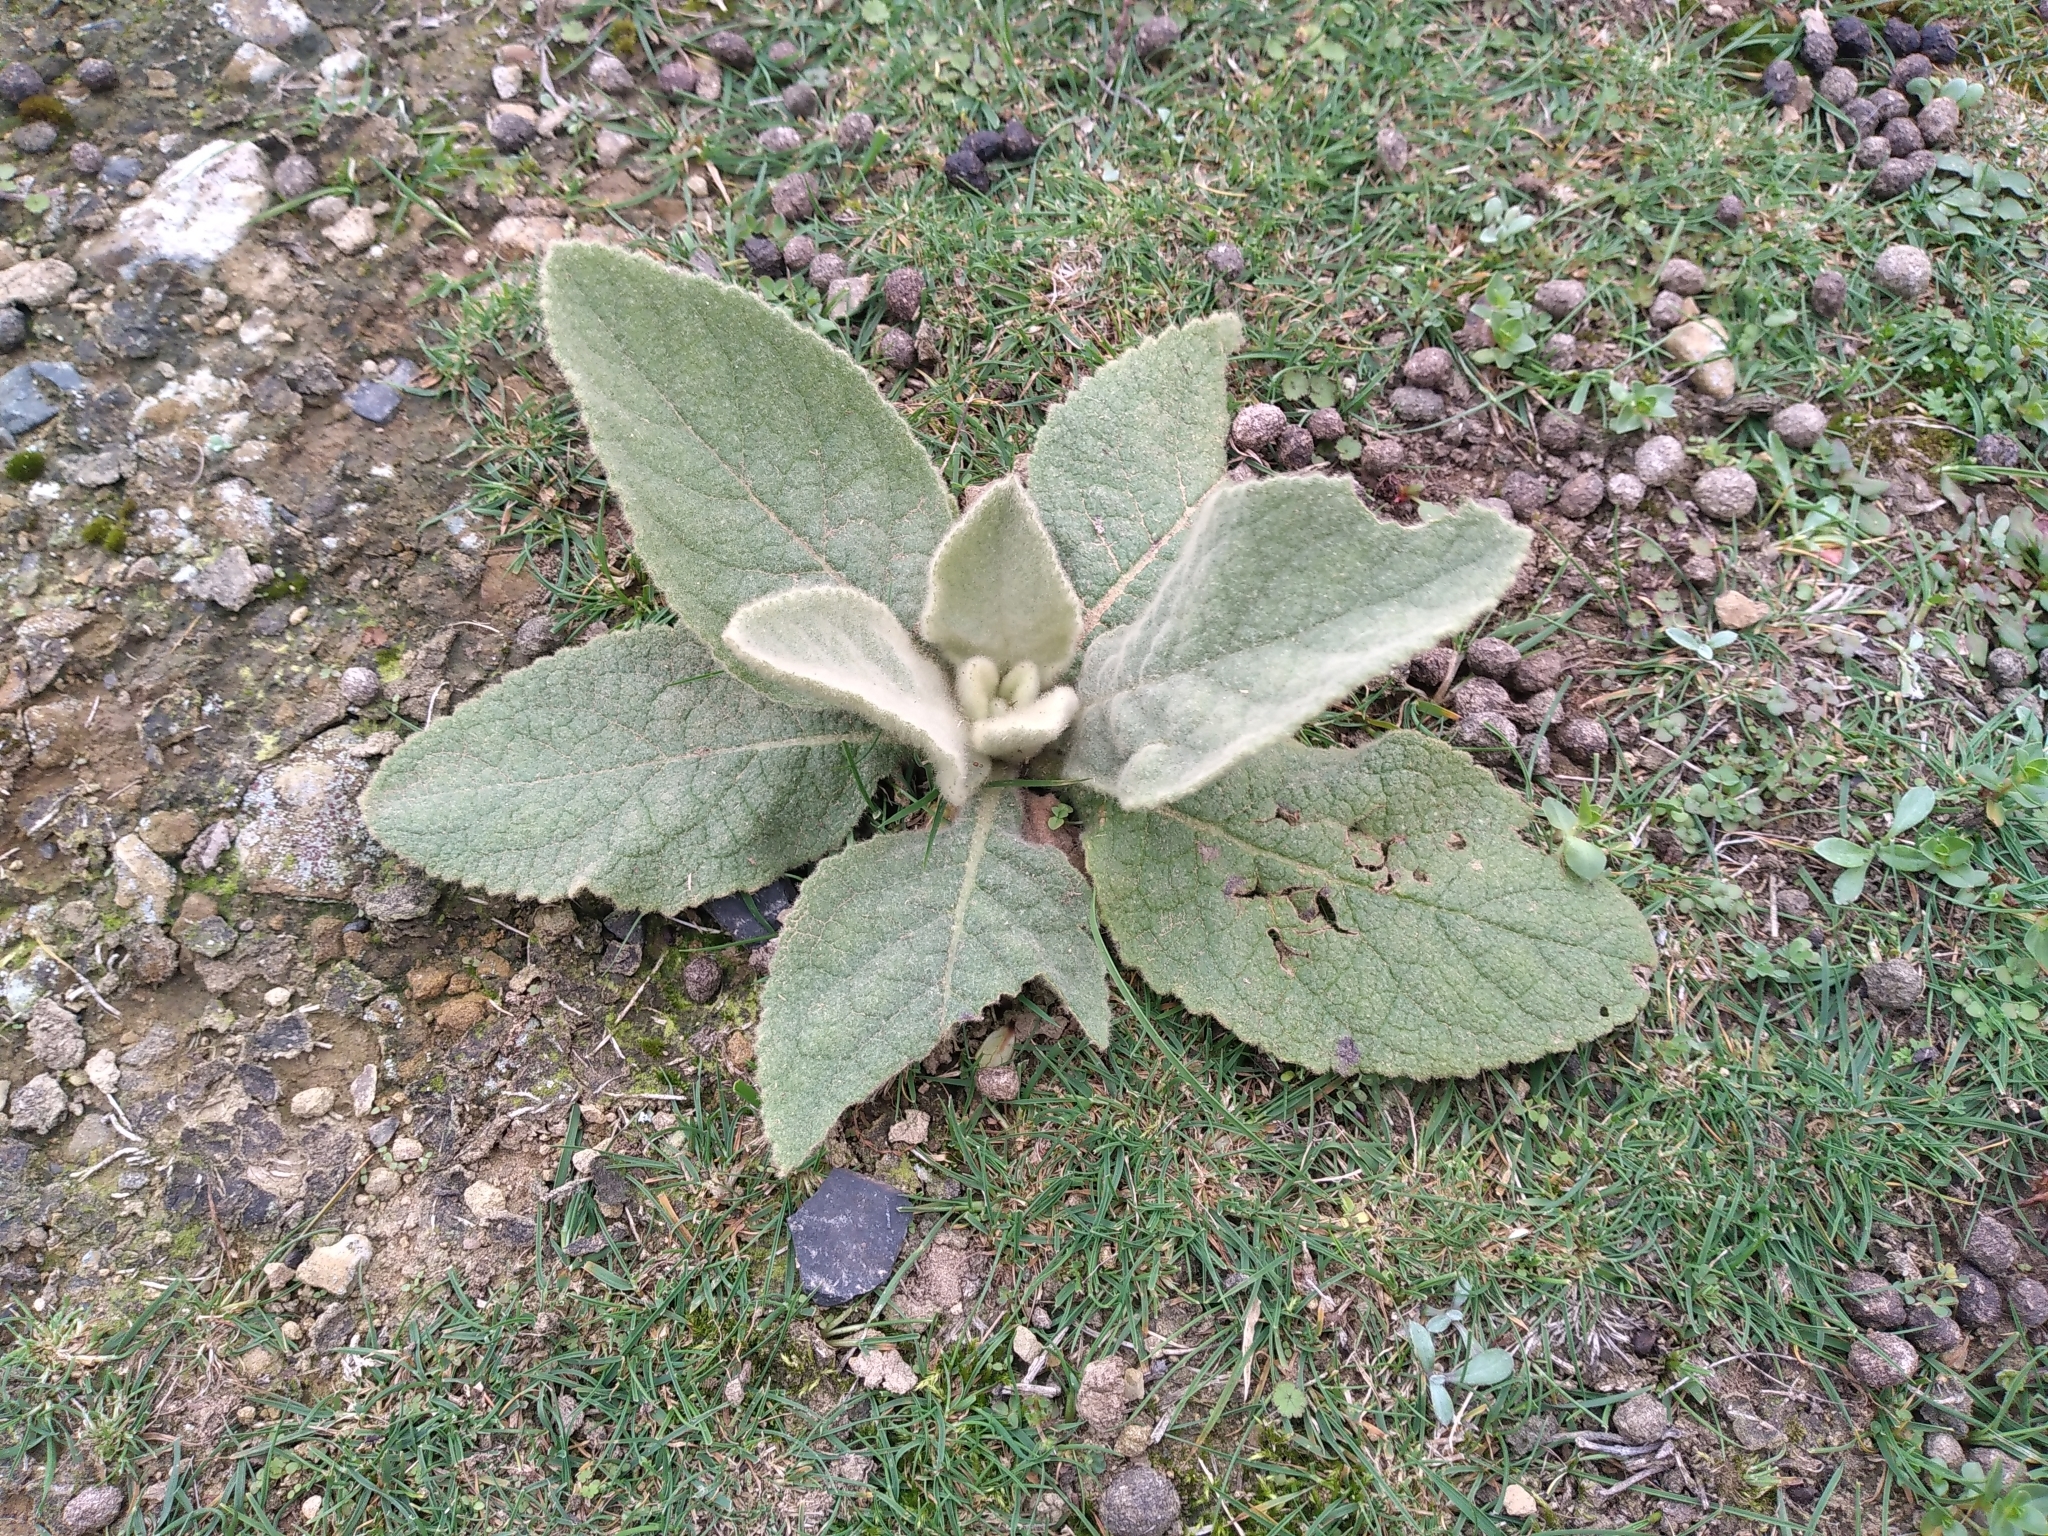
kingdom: Plantae
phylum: Tracheophyta
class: Magnoliopsida
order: Lamiales
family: Scrophulariaceae
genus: Verbascum
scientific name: Verbascum thapsus
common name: Common mullein
